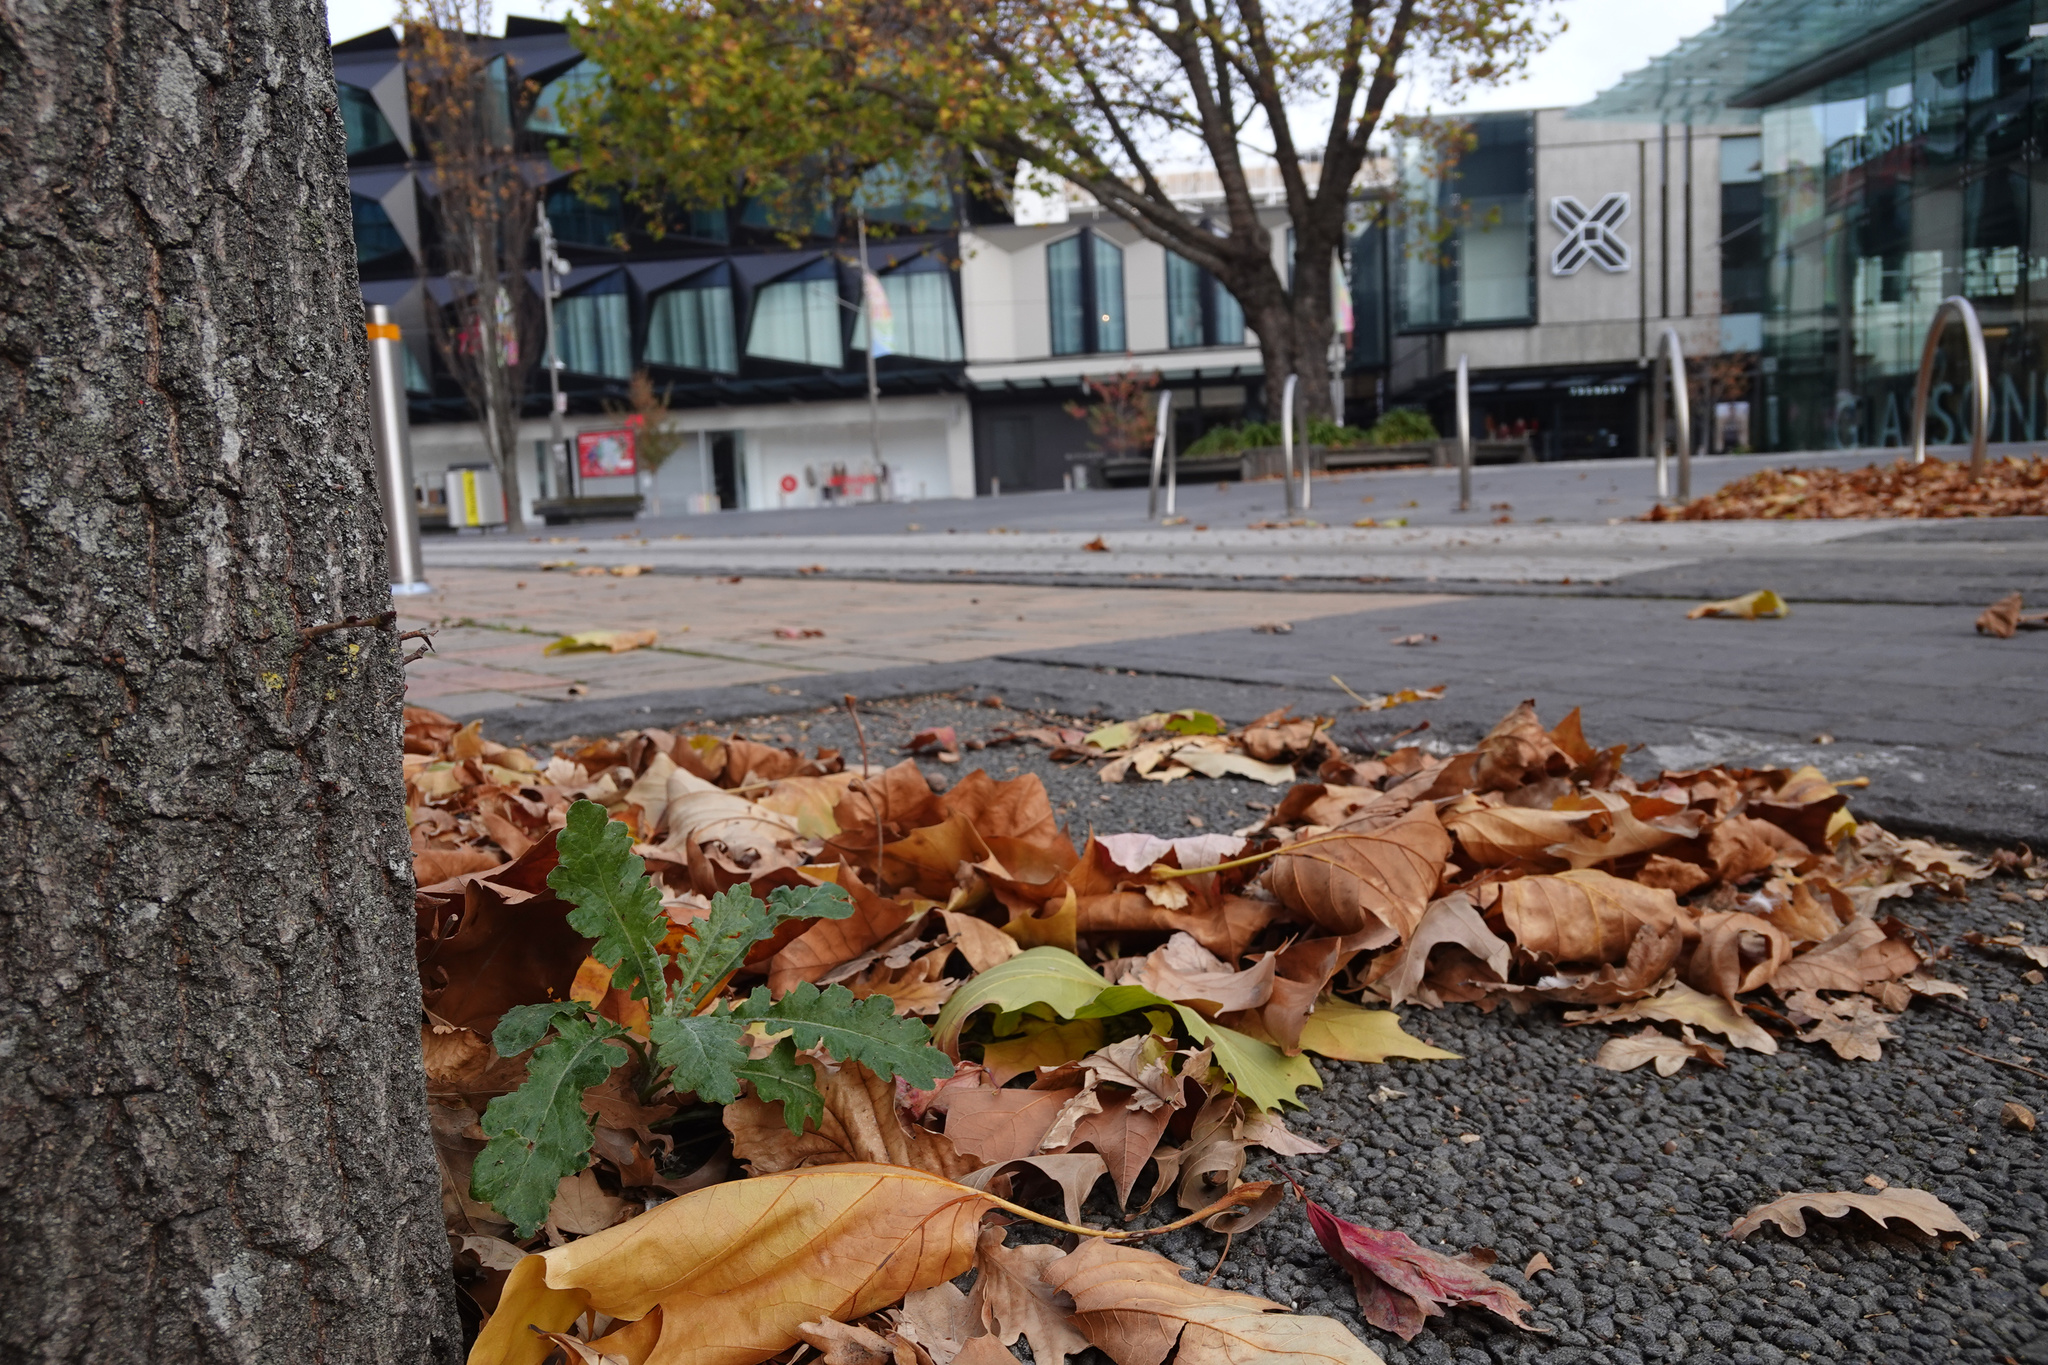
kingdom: Plantae
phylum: Tracheophyta
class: Magnoliopsida
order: Asterales
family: Asteraceae
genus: Senecio
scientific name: Senecio glomeratus
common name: Cutleaf burnweed
